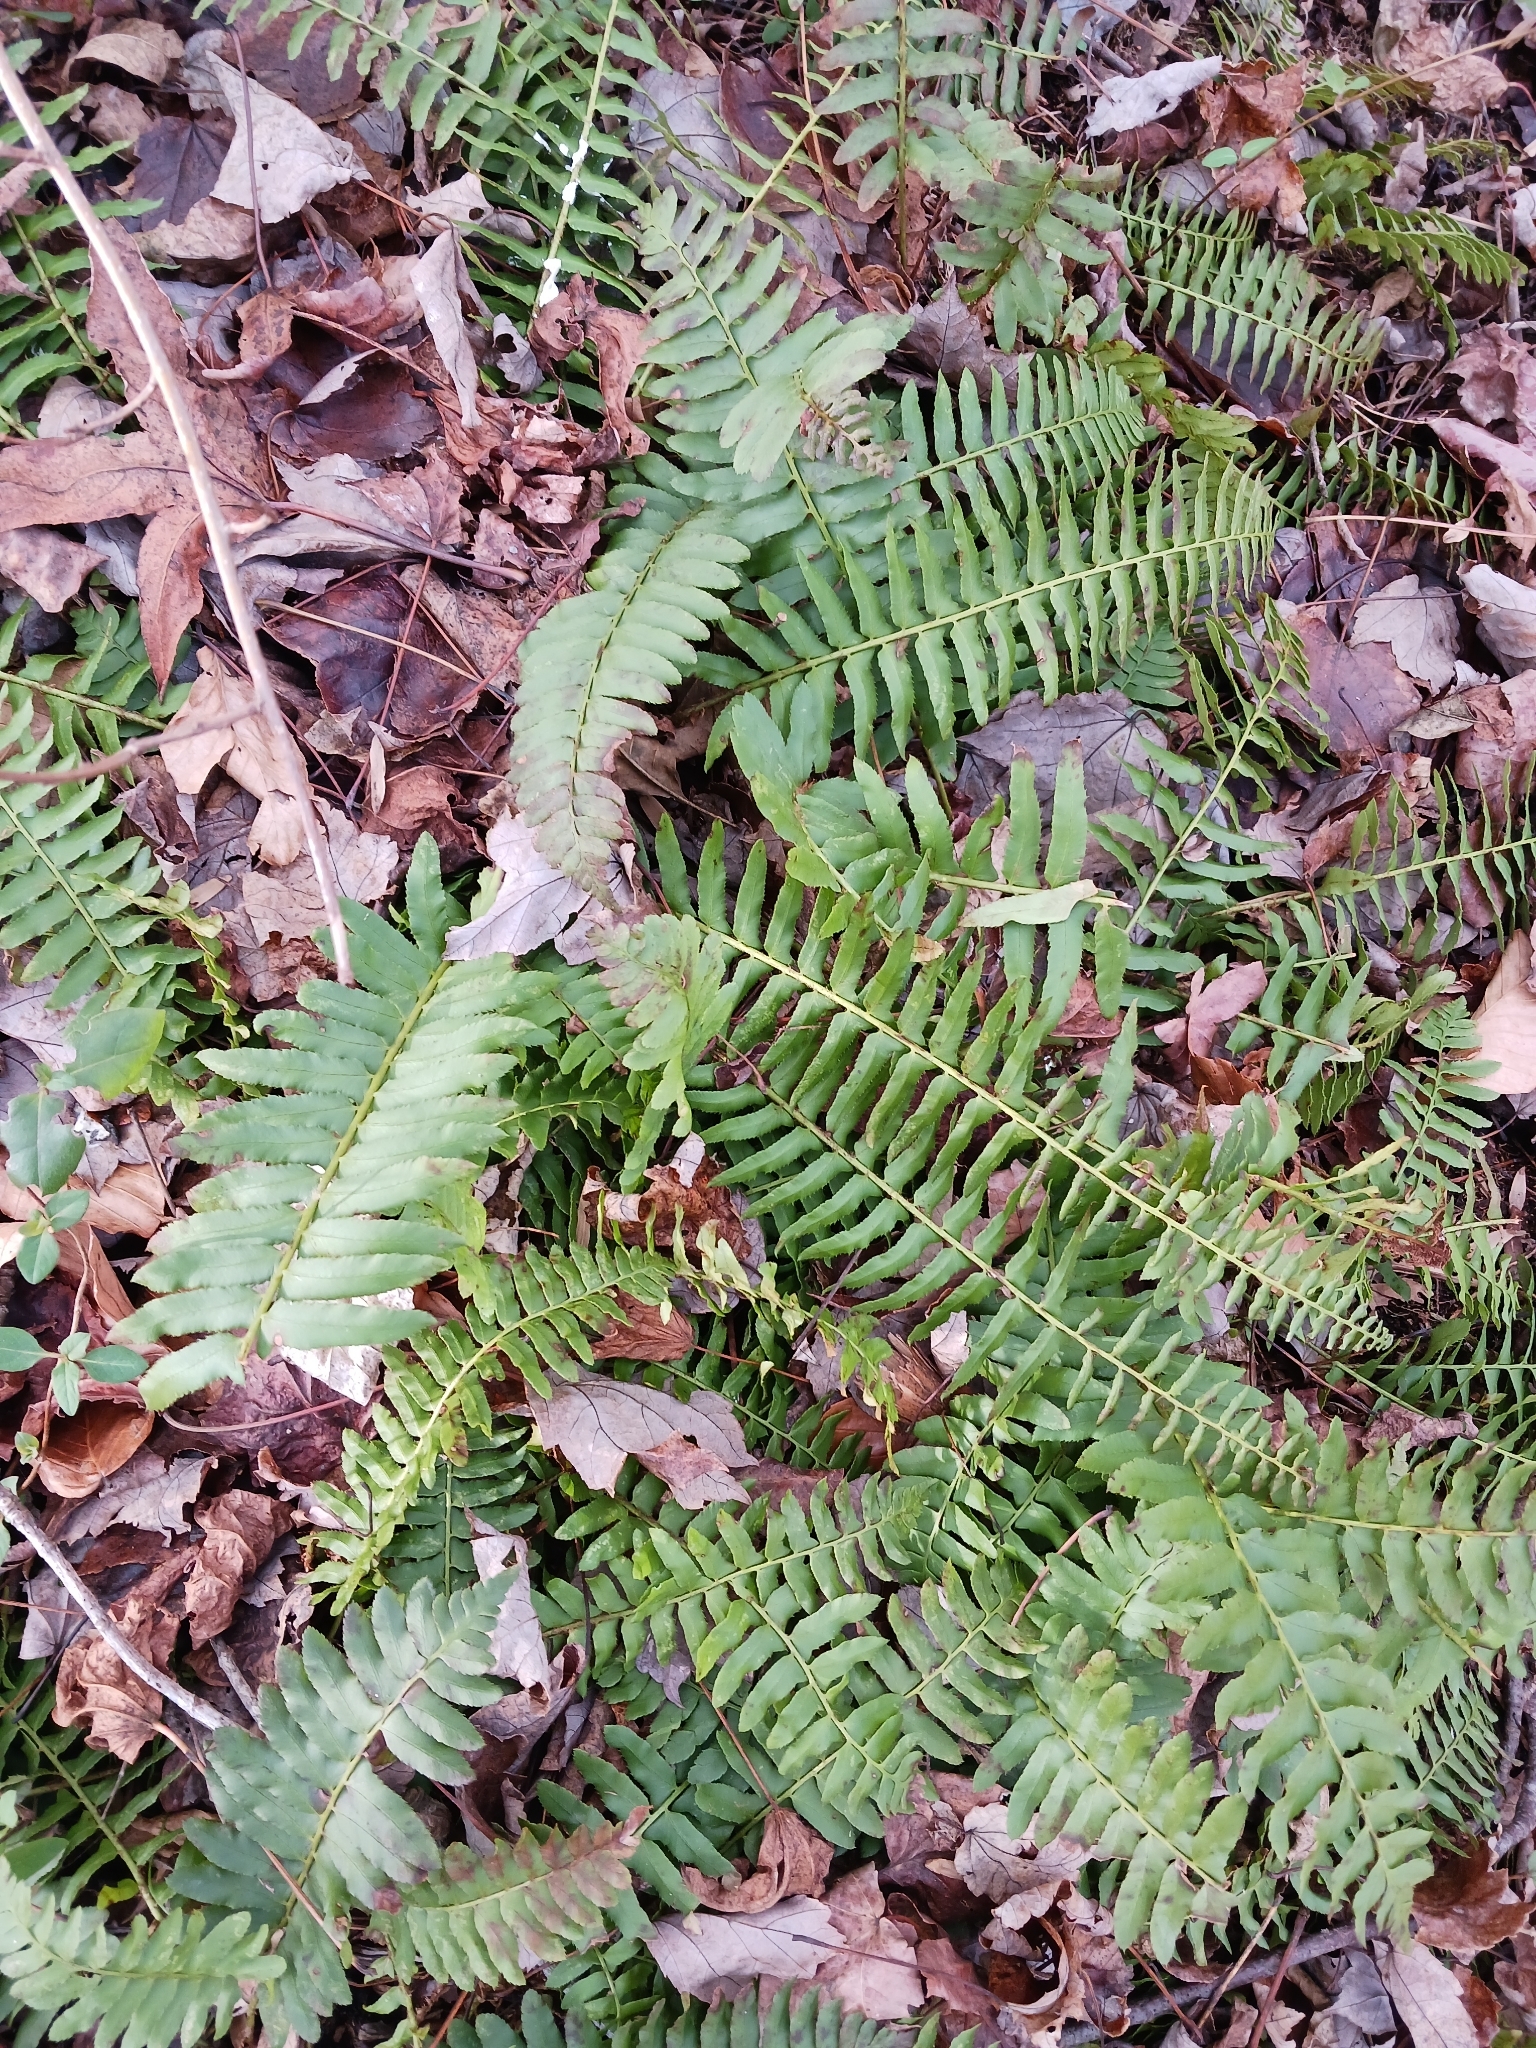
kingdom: Plantae
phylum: Tracheophyta
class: Polypodiopsida
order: Polypodiales
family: Dryopteridaceae
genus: Polystichum
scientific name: Polystichum acrostichoides
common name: Christmas fern
